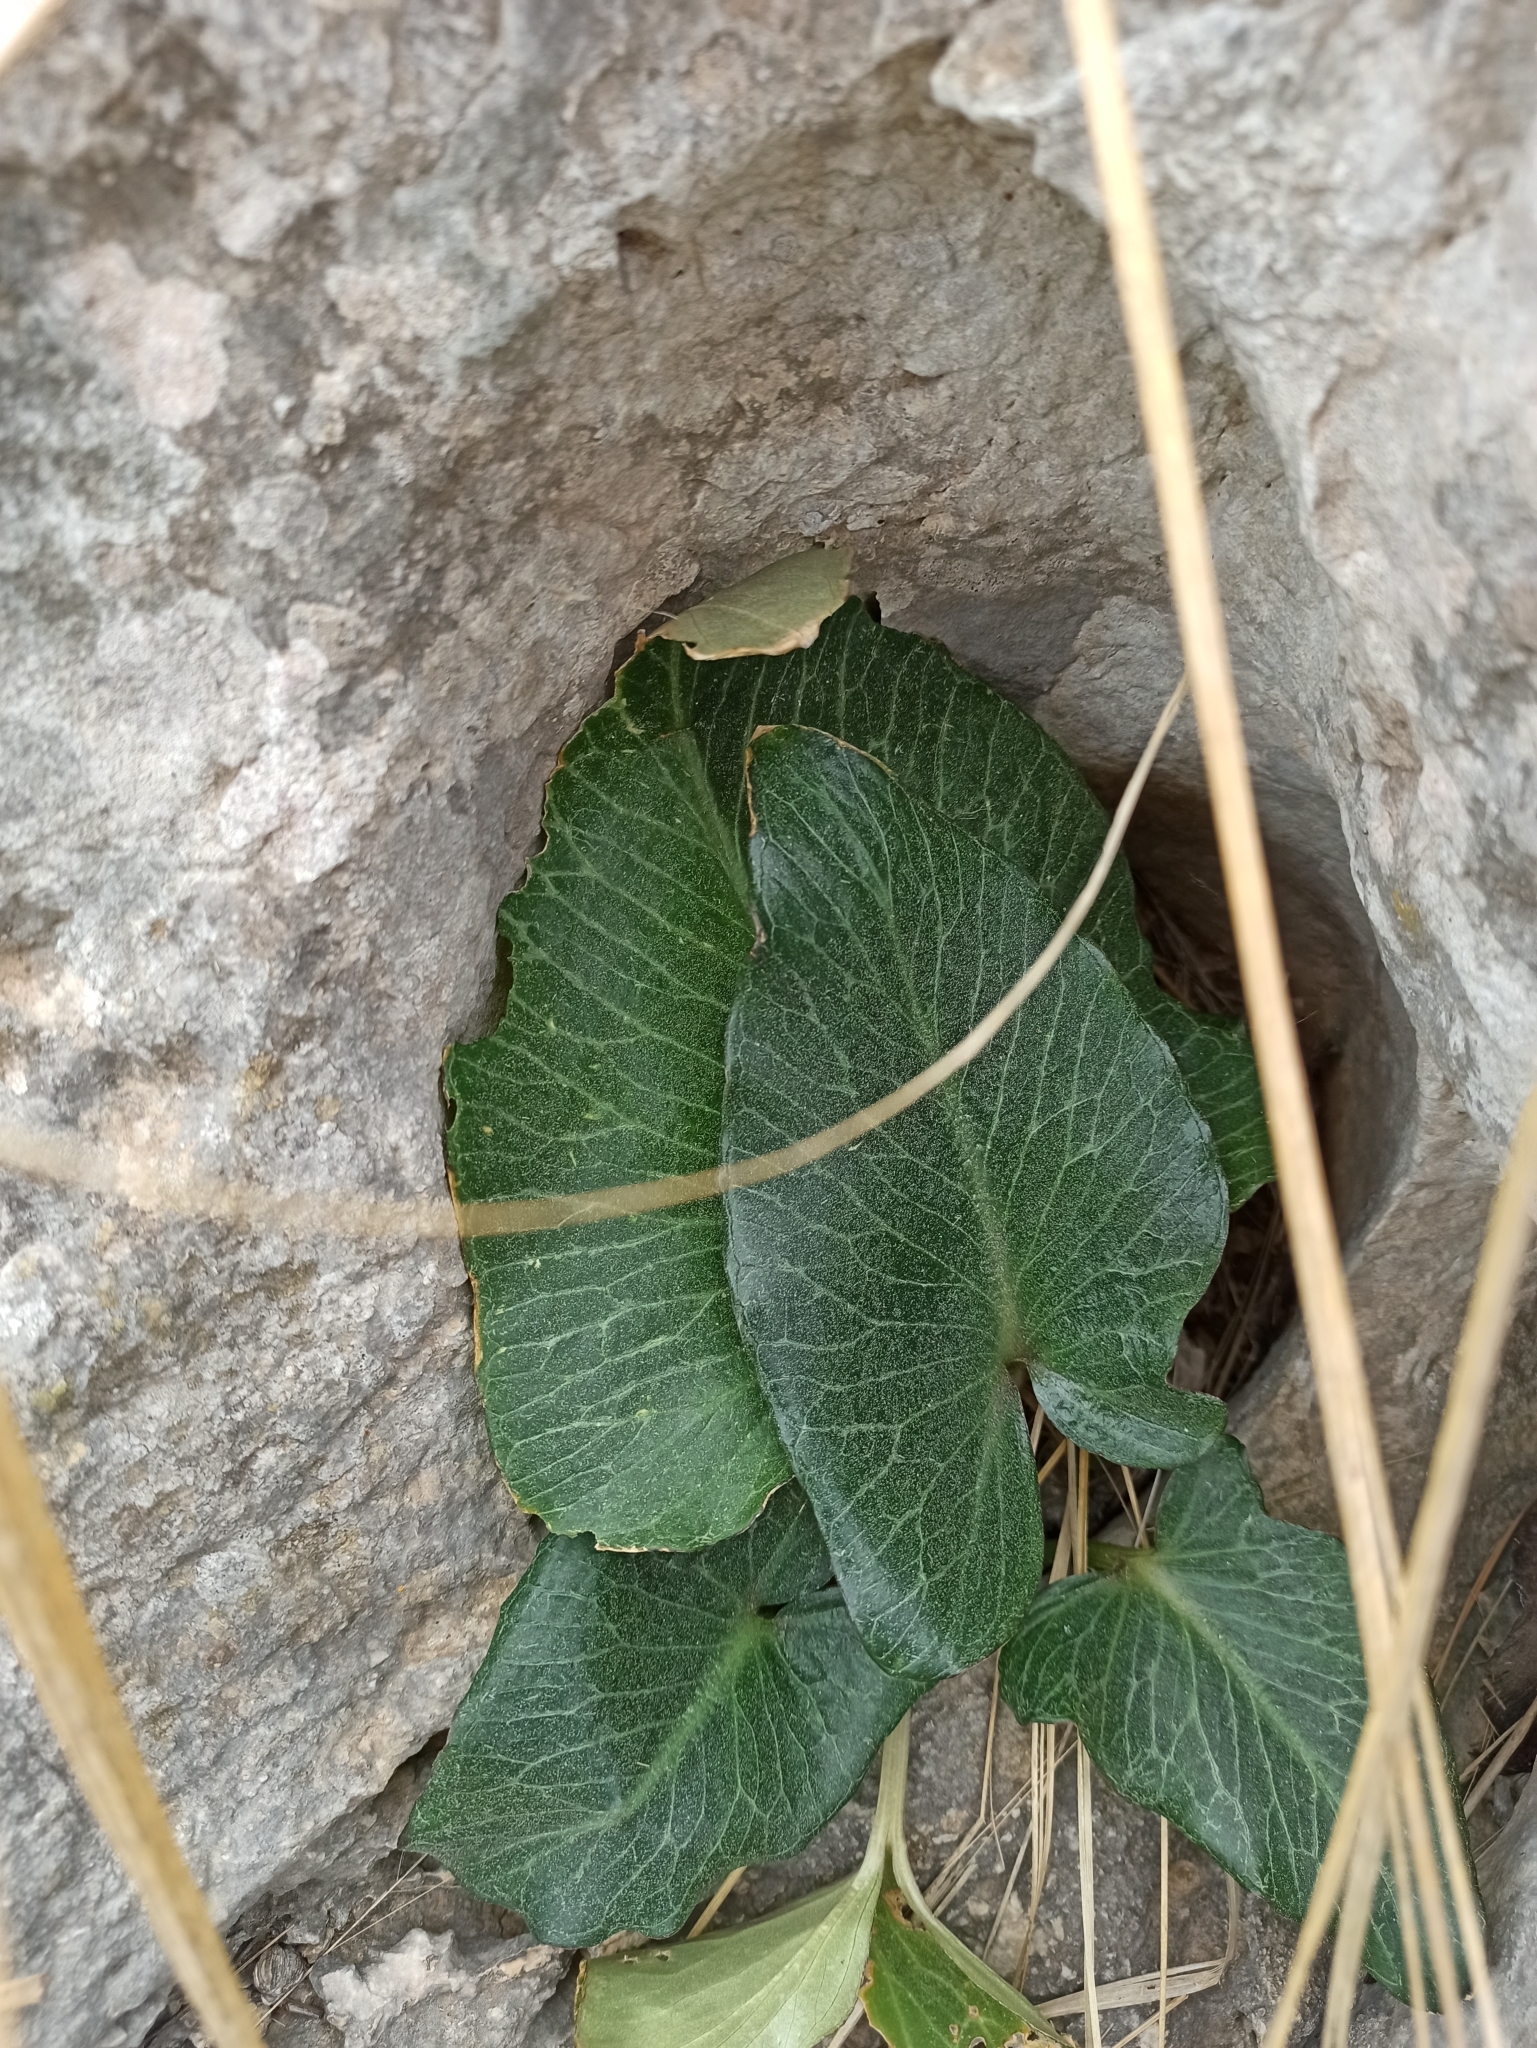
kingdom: Plantae
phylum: Tracheophyta
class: Liliopsida
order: Alismatales
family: Araceae
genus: Arum
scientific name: Arum pictum
